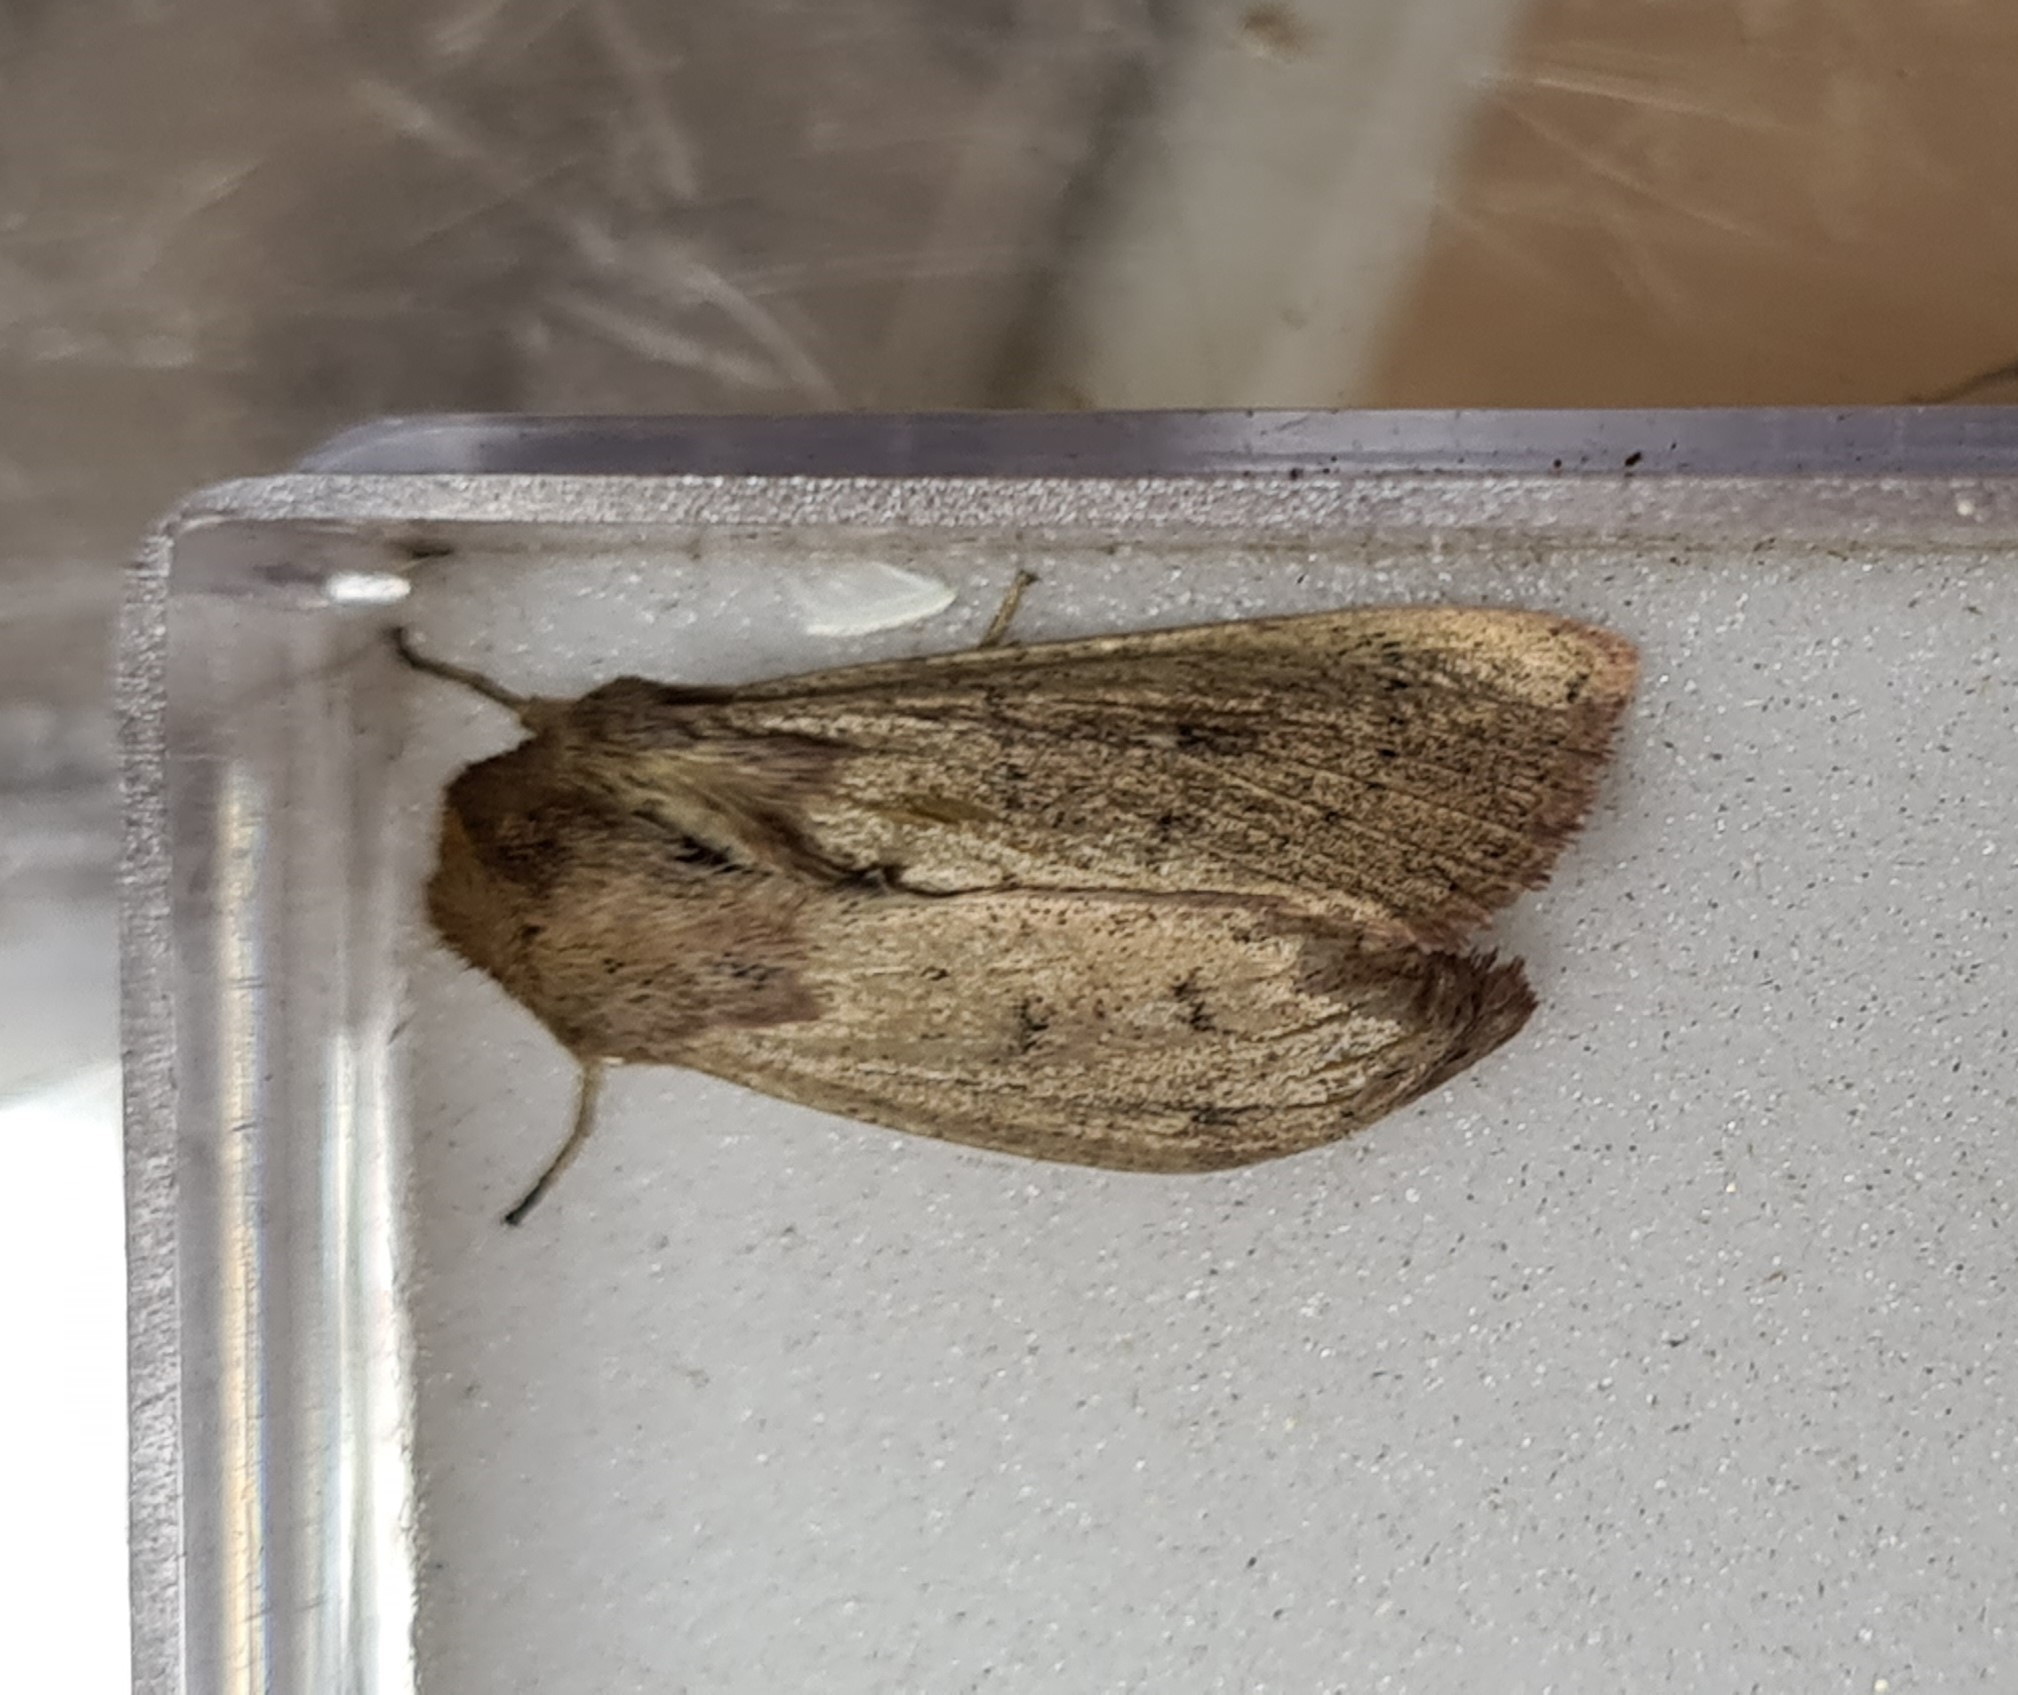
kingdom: Animalia
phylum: Arthropoda
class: Insecta
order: Lepidoptera
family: Noctuidae
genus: Mythimna
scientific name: Mythimna ferrago
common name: Clay
